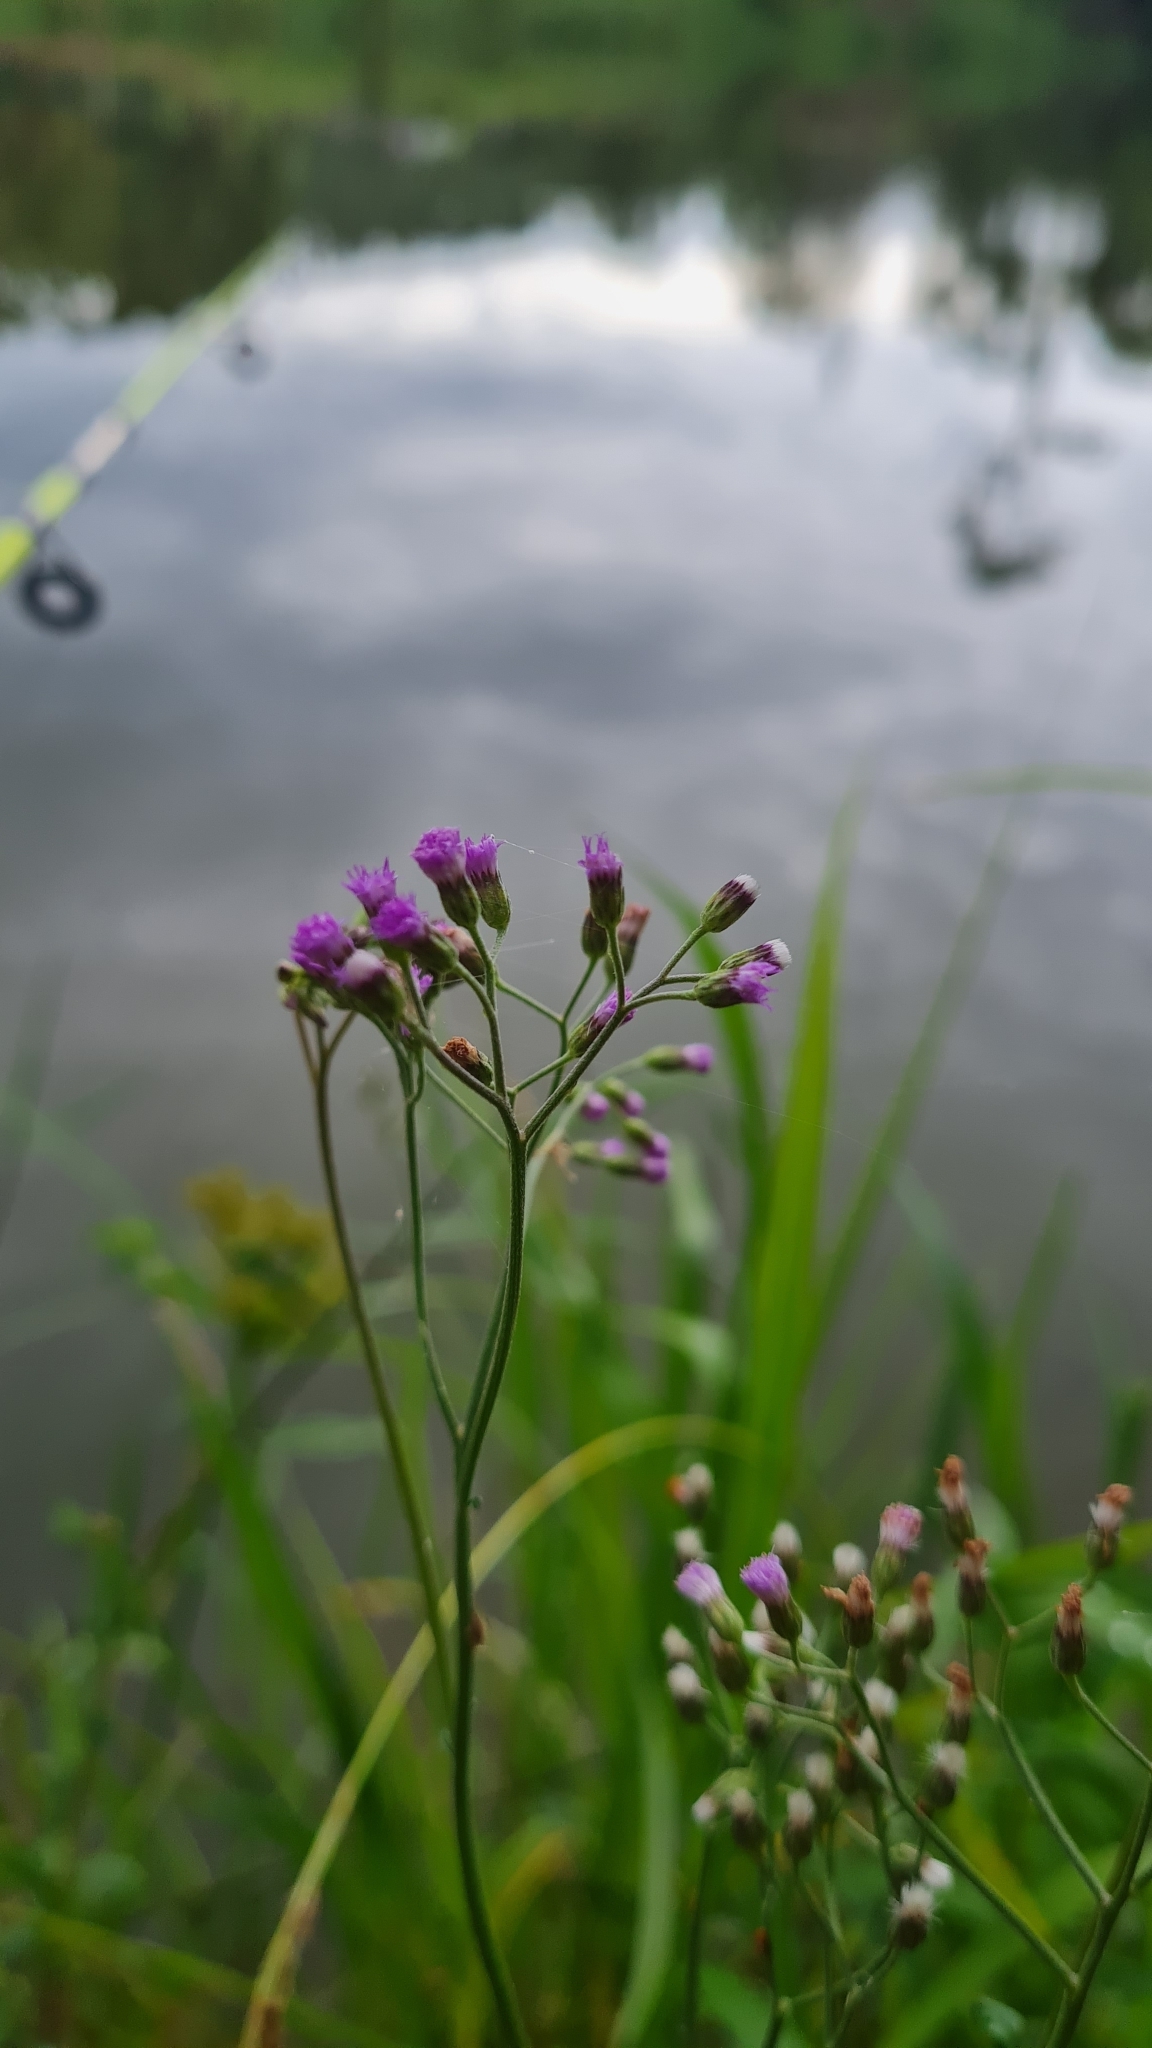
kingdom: Plantae
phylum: Tracheophyta
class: Magnoliopsida
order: Asterales
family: Asteraceae
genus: Cyanthillium
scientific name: Cyanthillium cinereum
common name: Little ironweed
